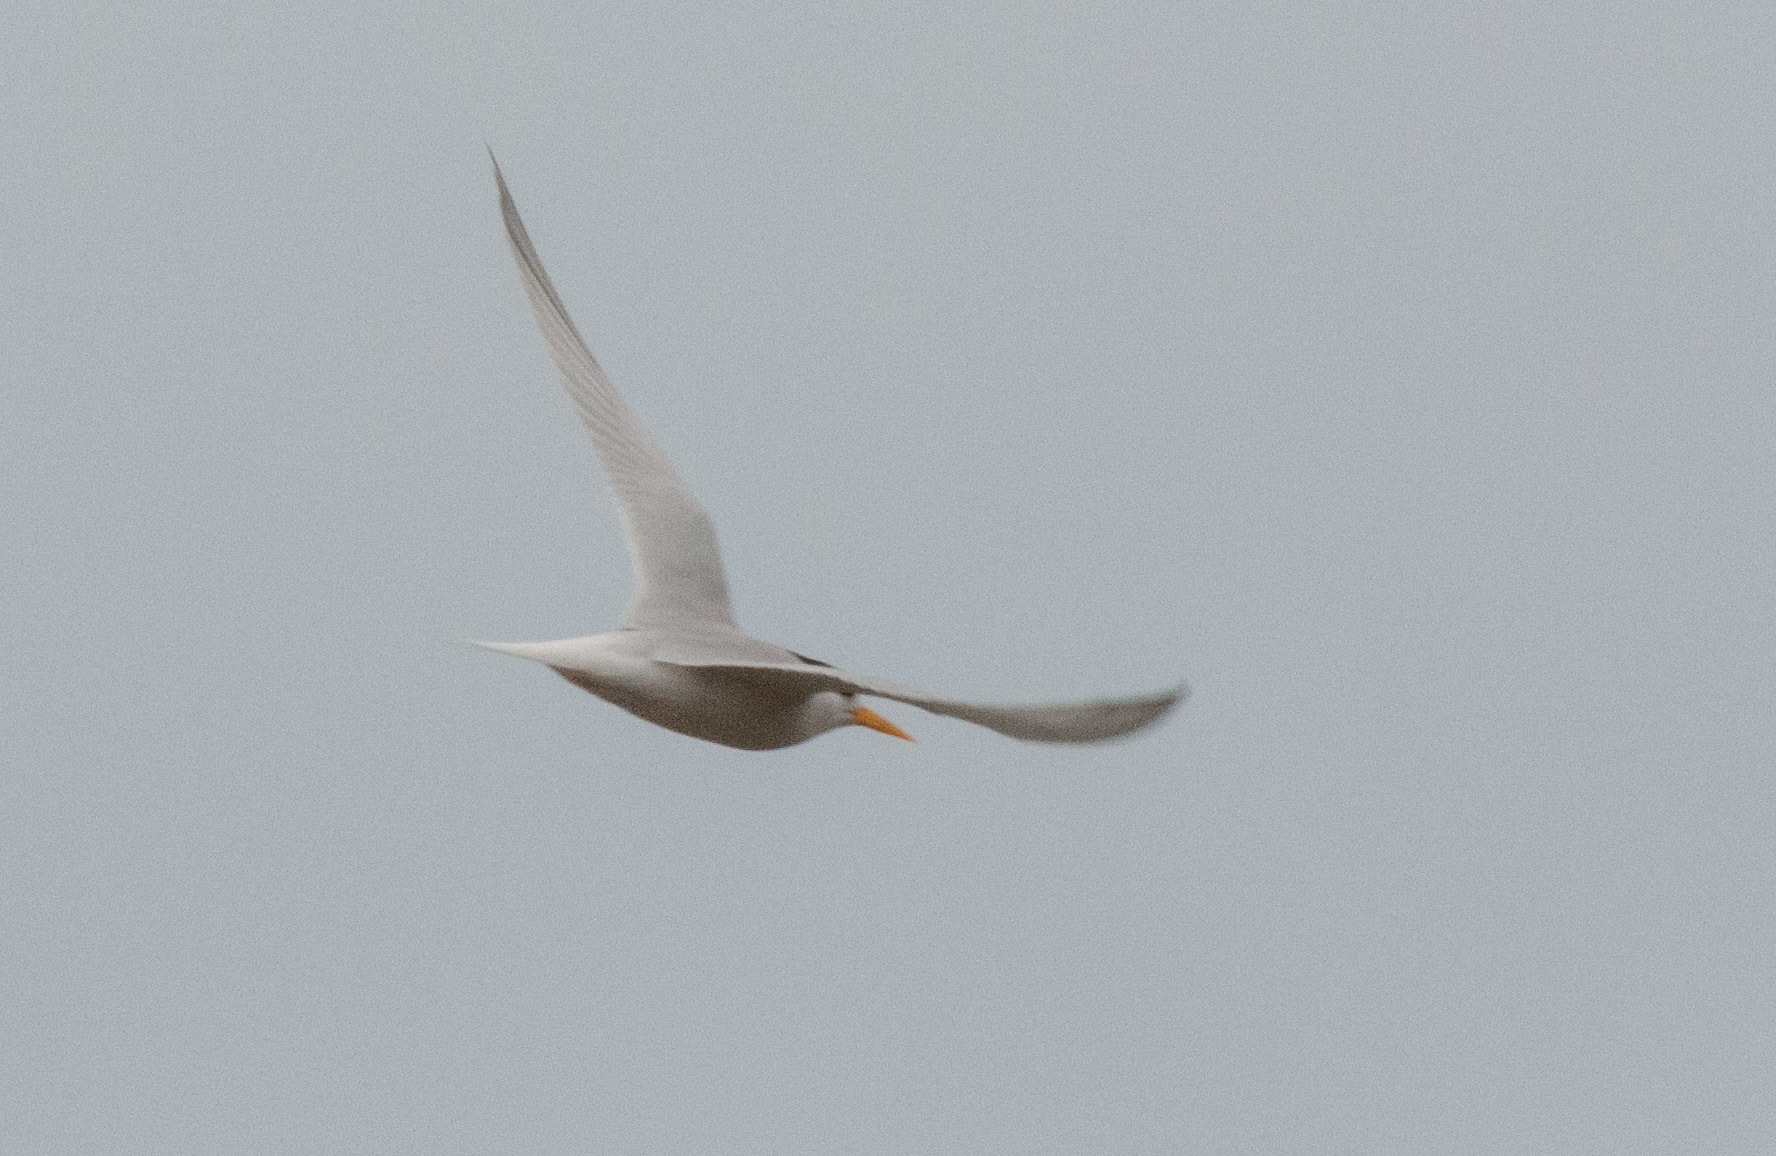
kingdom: Animalia
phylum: Chordata
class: Aves
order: Charadriiformes
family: Laridae
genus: Sternula
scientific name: Sternula nereis
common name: Fairy tern
